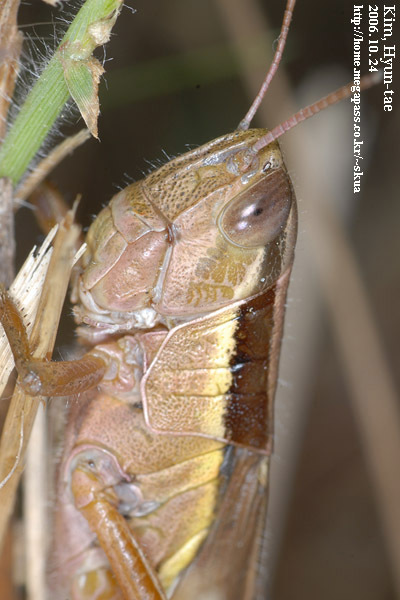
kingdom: Animalia
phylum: Arthropoda
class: Insecta
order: Orthoptera
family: Acrididae
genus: Oxya
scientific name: Oxya chinensis
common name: Small rice grasshopper
